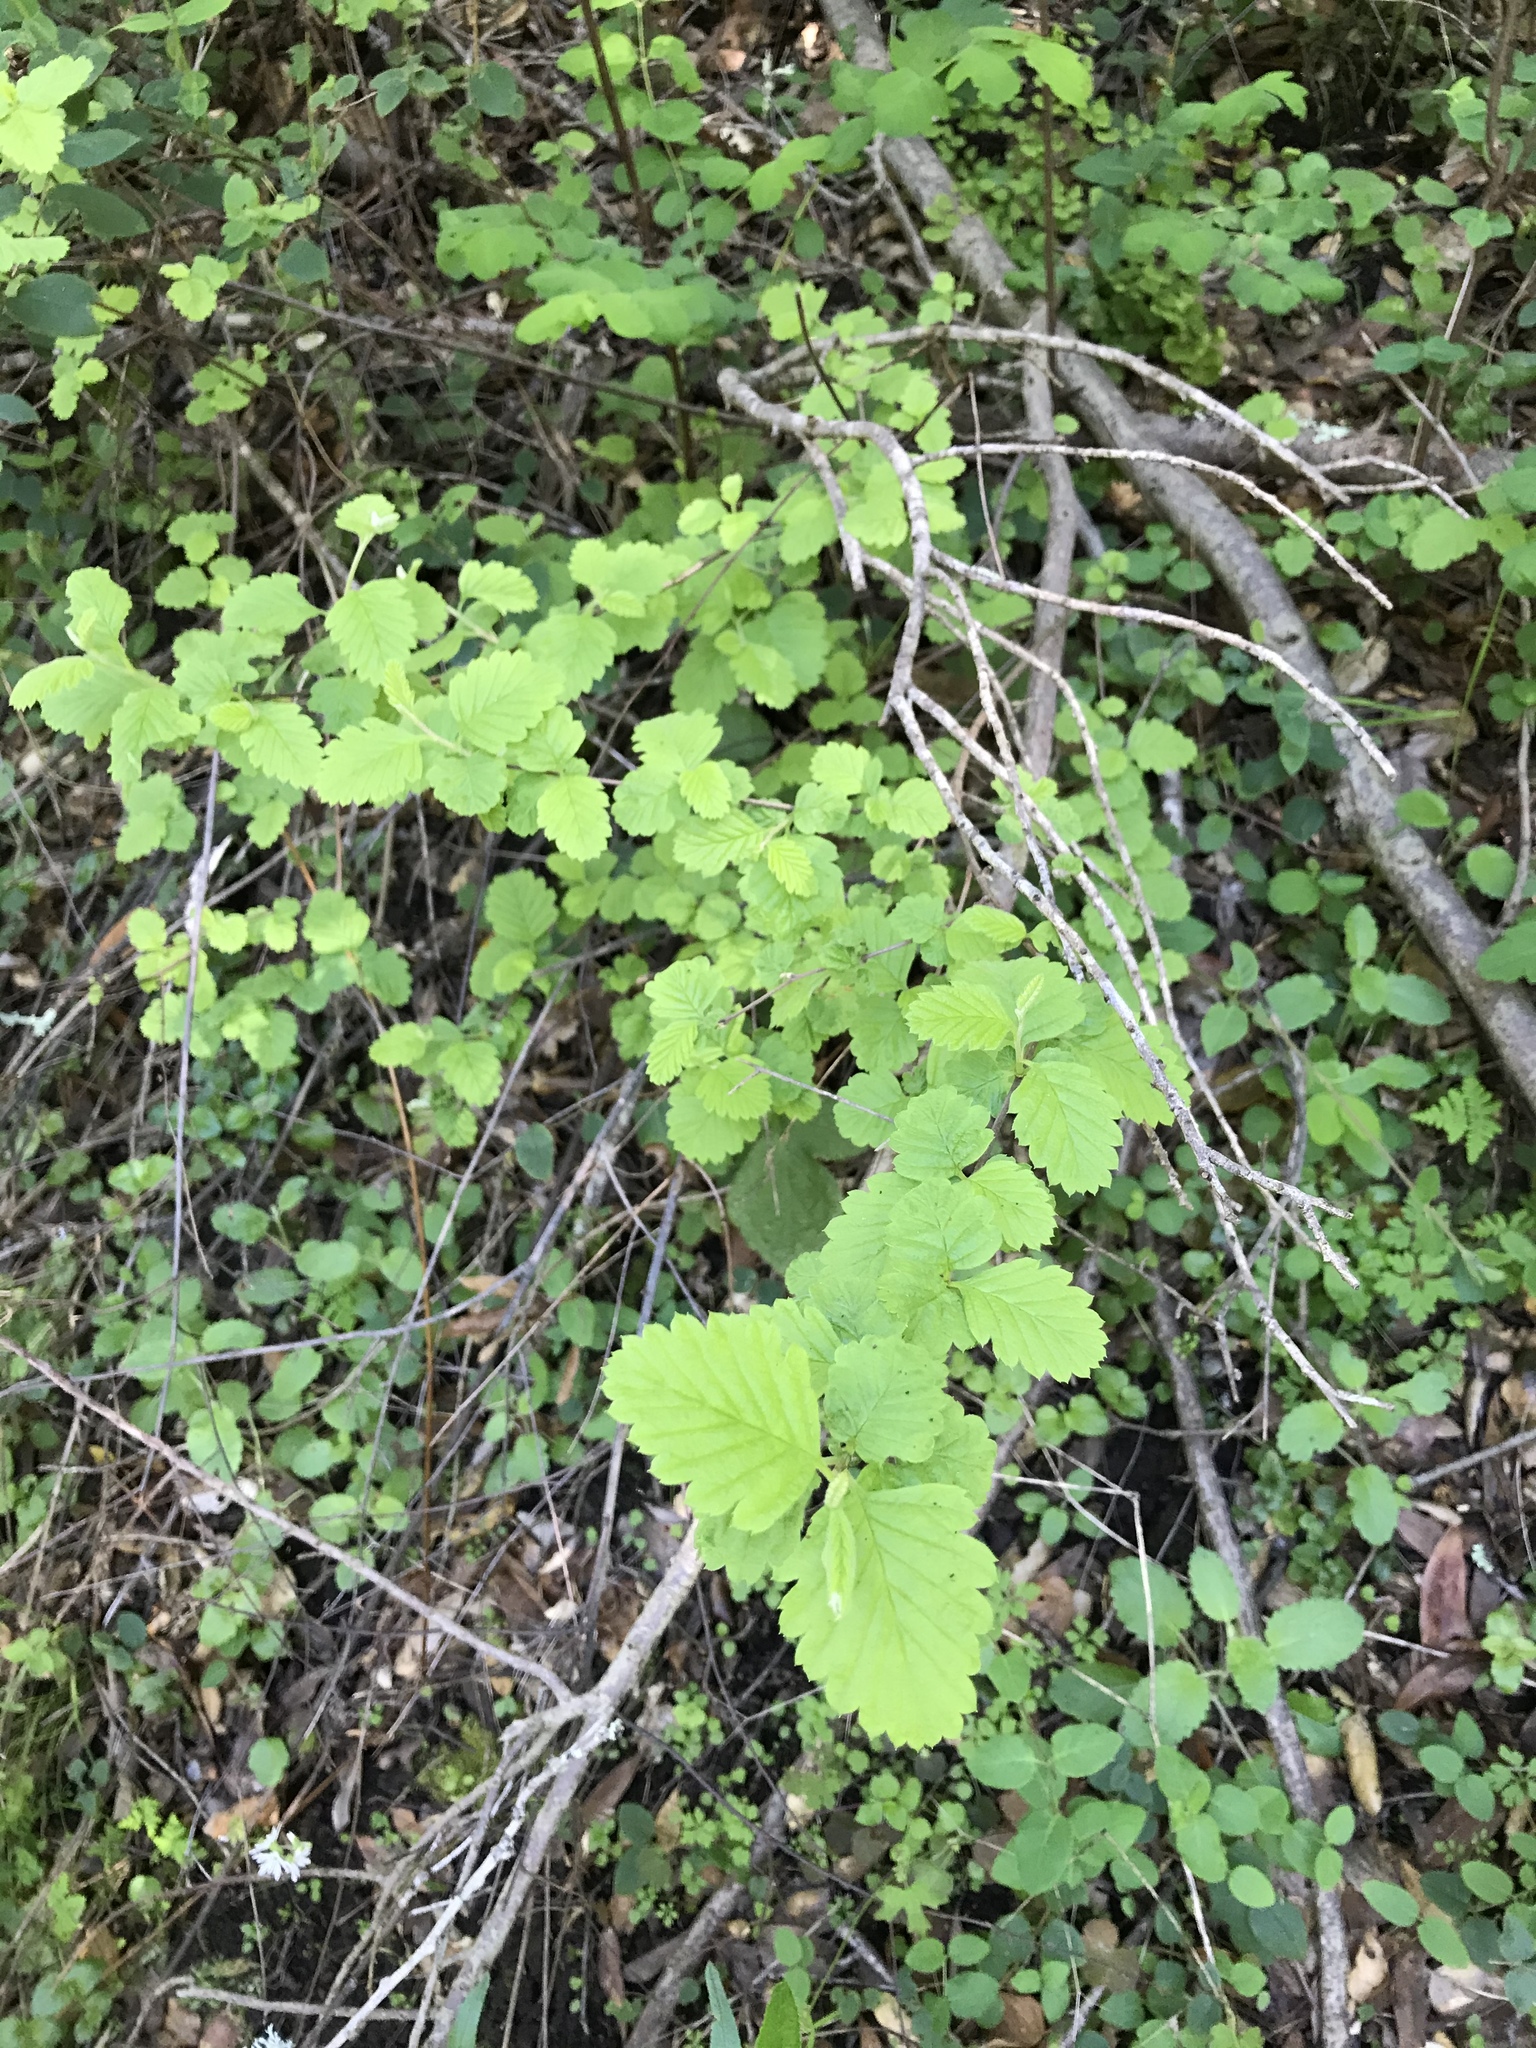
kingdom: Plantae
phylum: Tracheophyta
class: Magnoliopsida
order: Rosales
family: Rosaceae
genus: Holodiscus
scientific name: Holodiscus discolor
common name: Oceanspray
